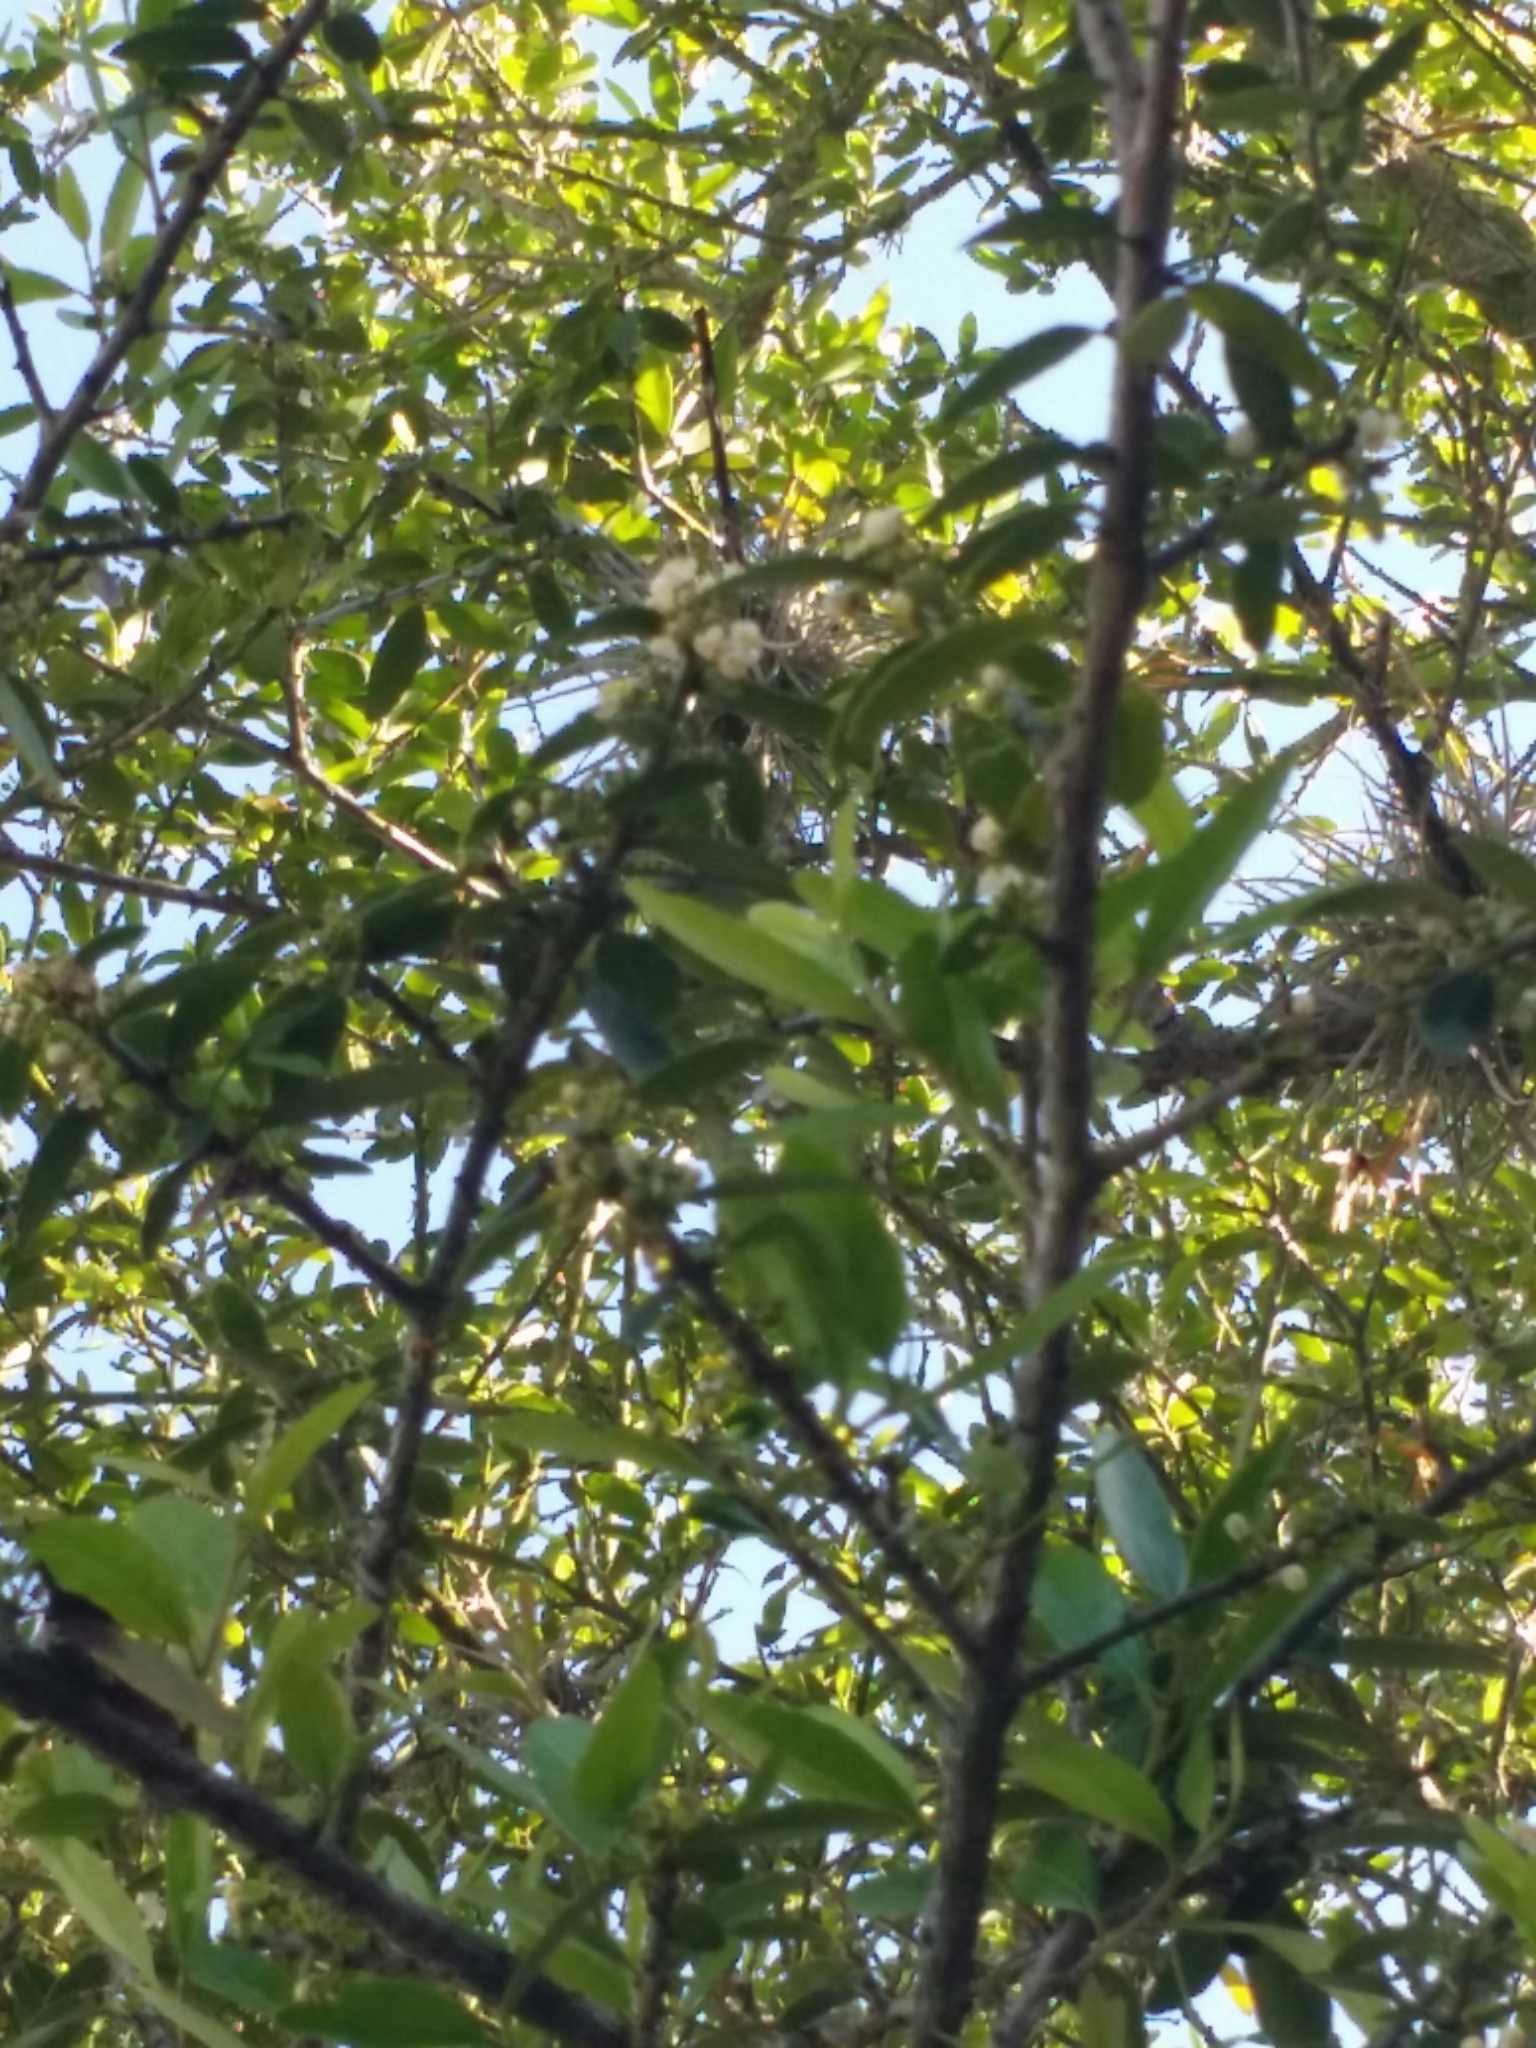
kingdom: Plantae
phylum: Tracheophyta
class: Liliopsida
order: Poales
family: Bromeliaceae
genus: Tillandsia
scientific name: Tillandsia recurvata
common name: Small ballmoss
